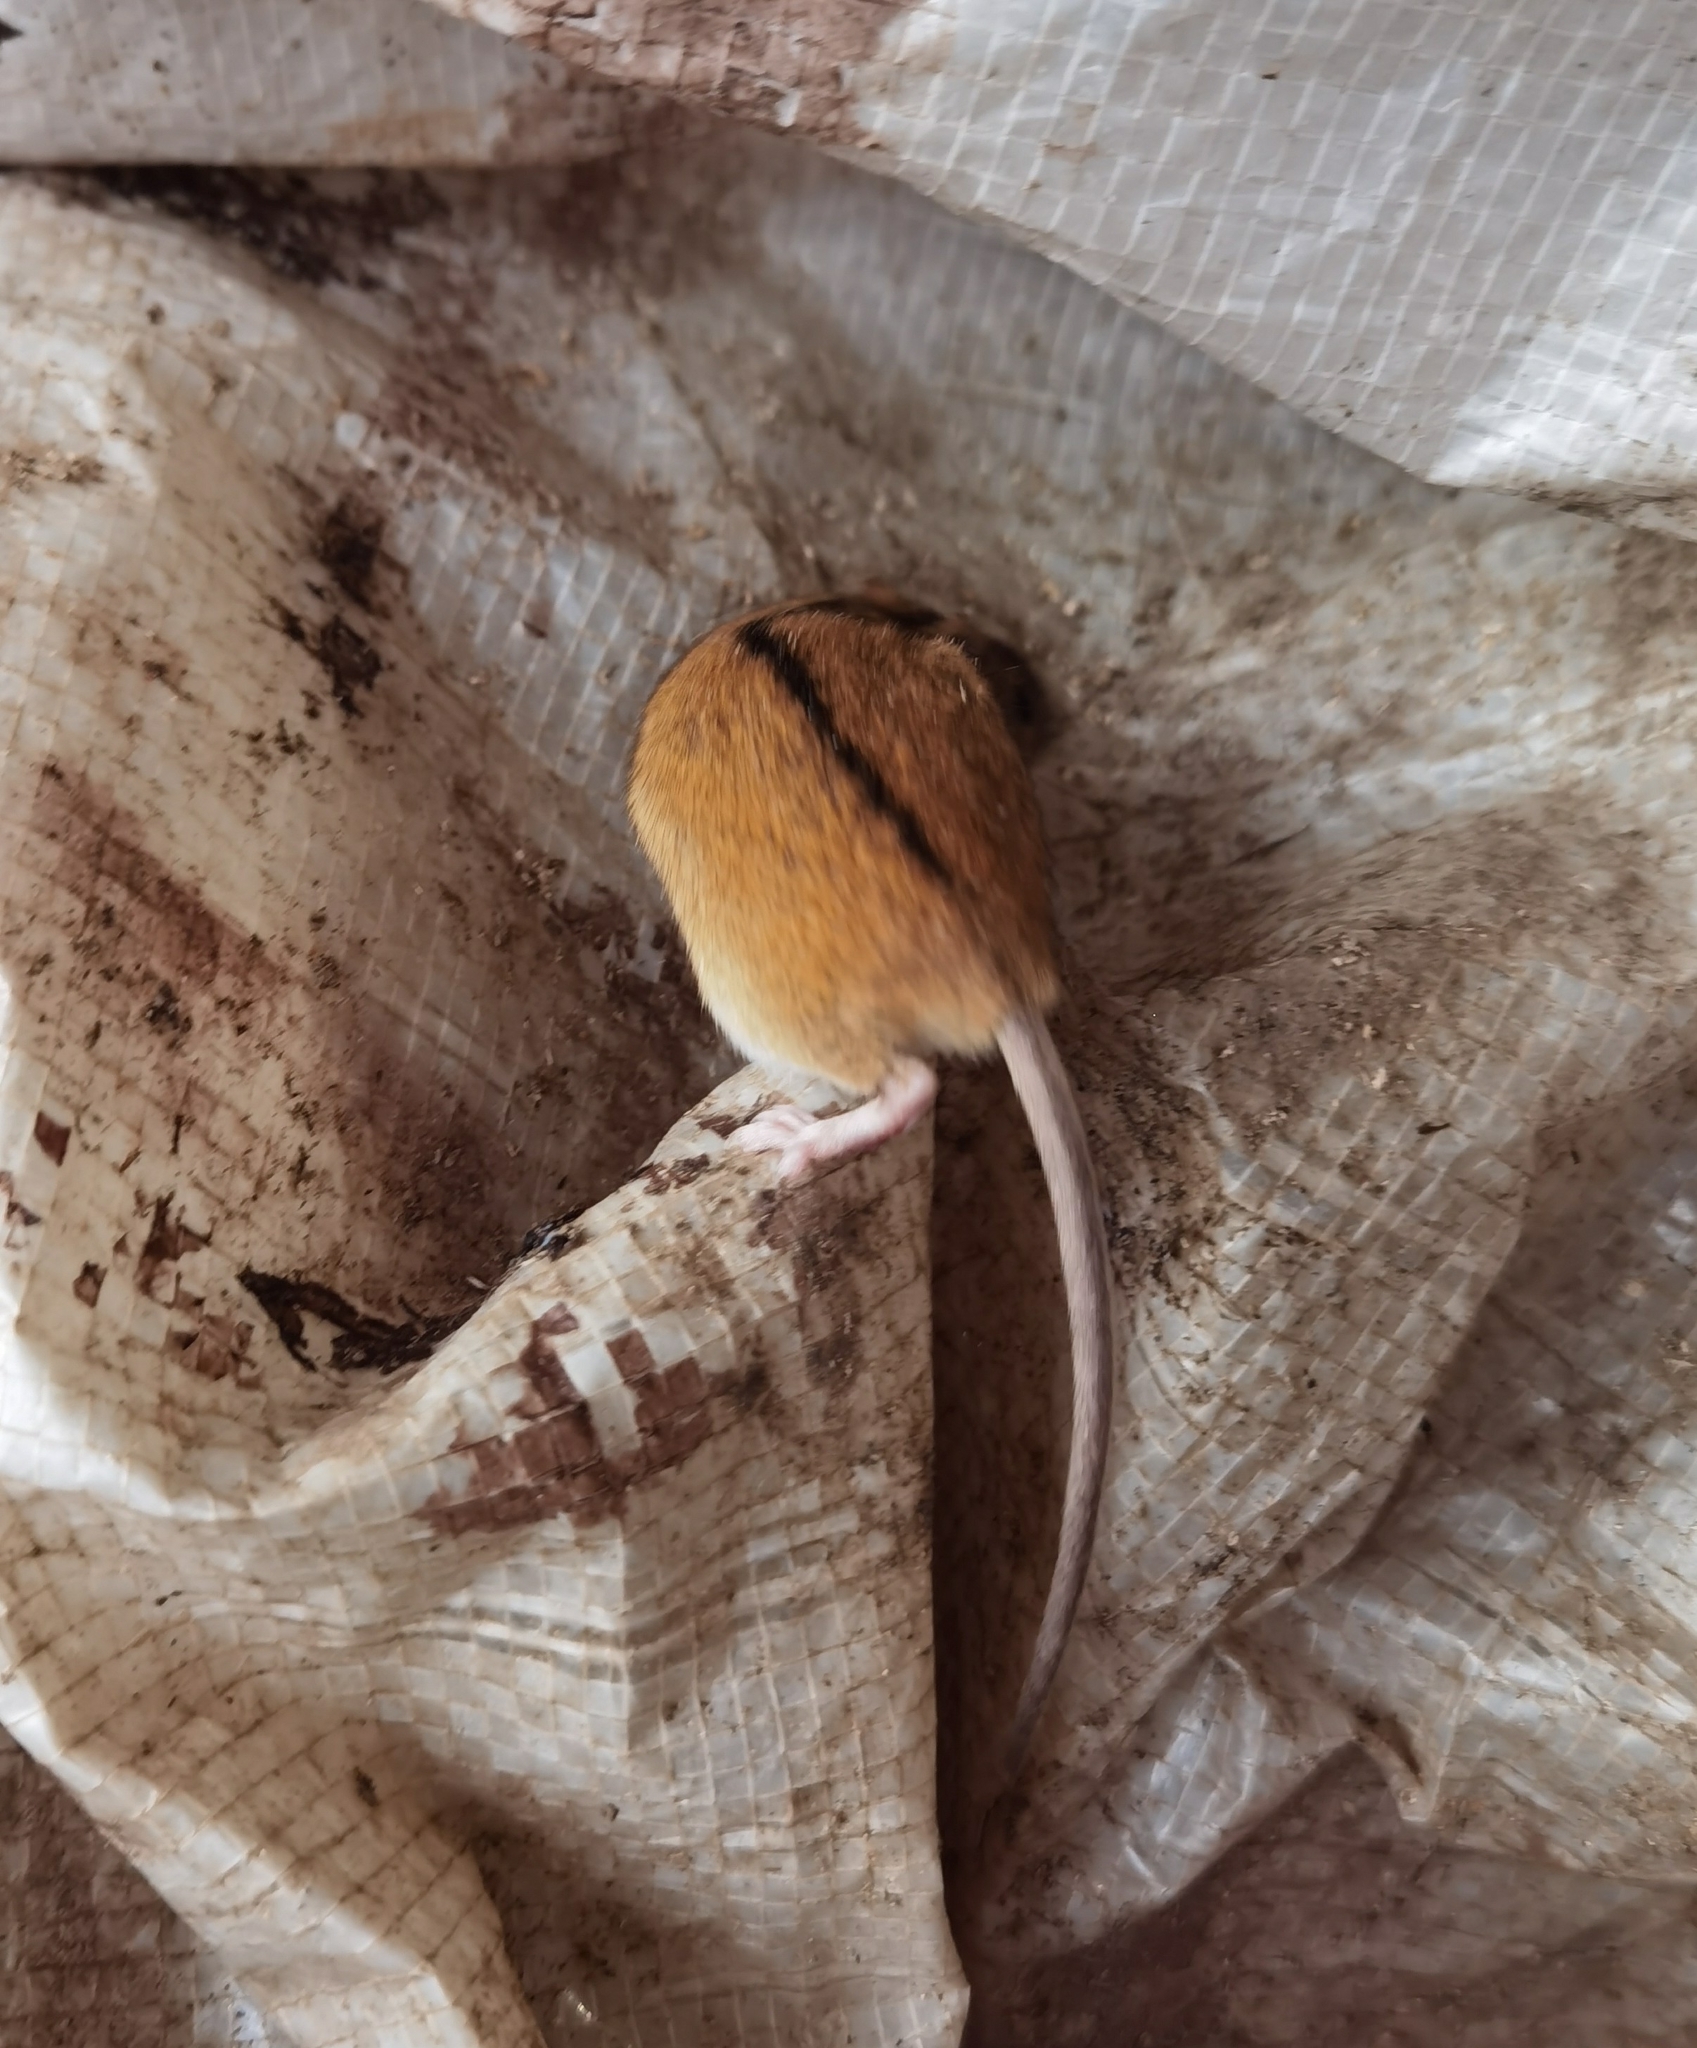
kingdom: Animalia
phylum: Chordata
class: Mammalia
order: Rodentia
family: Muridae
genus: Apodemus
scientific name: Apodemus agrarius
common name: Striped field mouse
